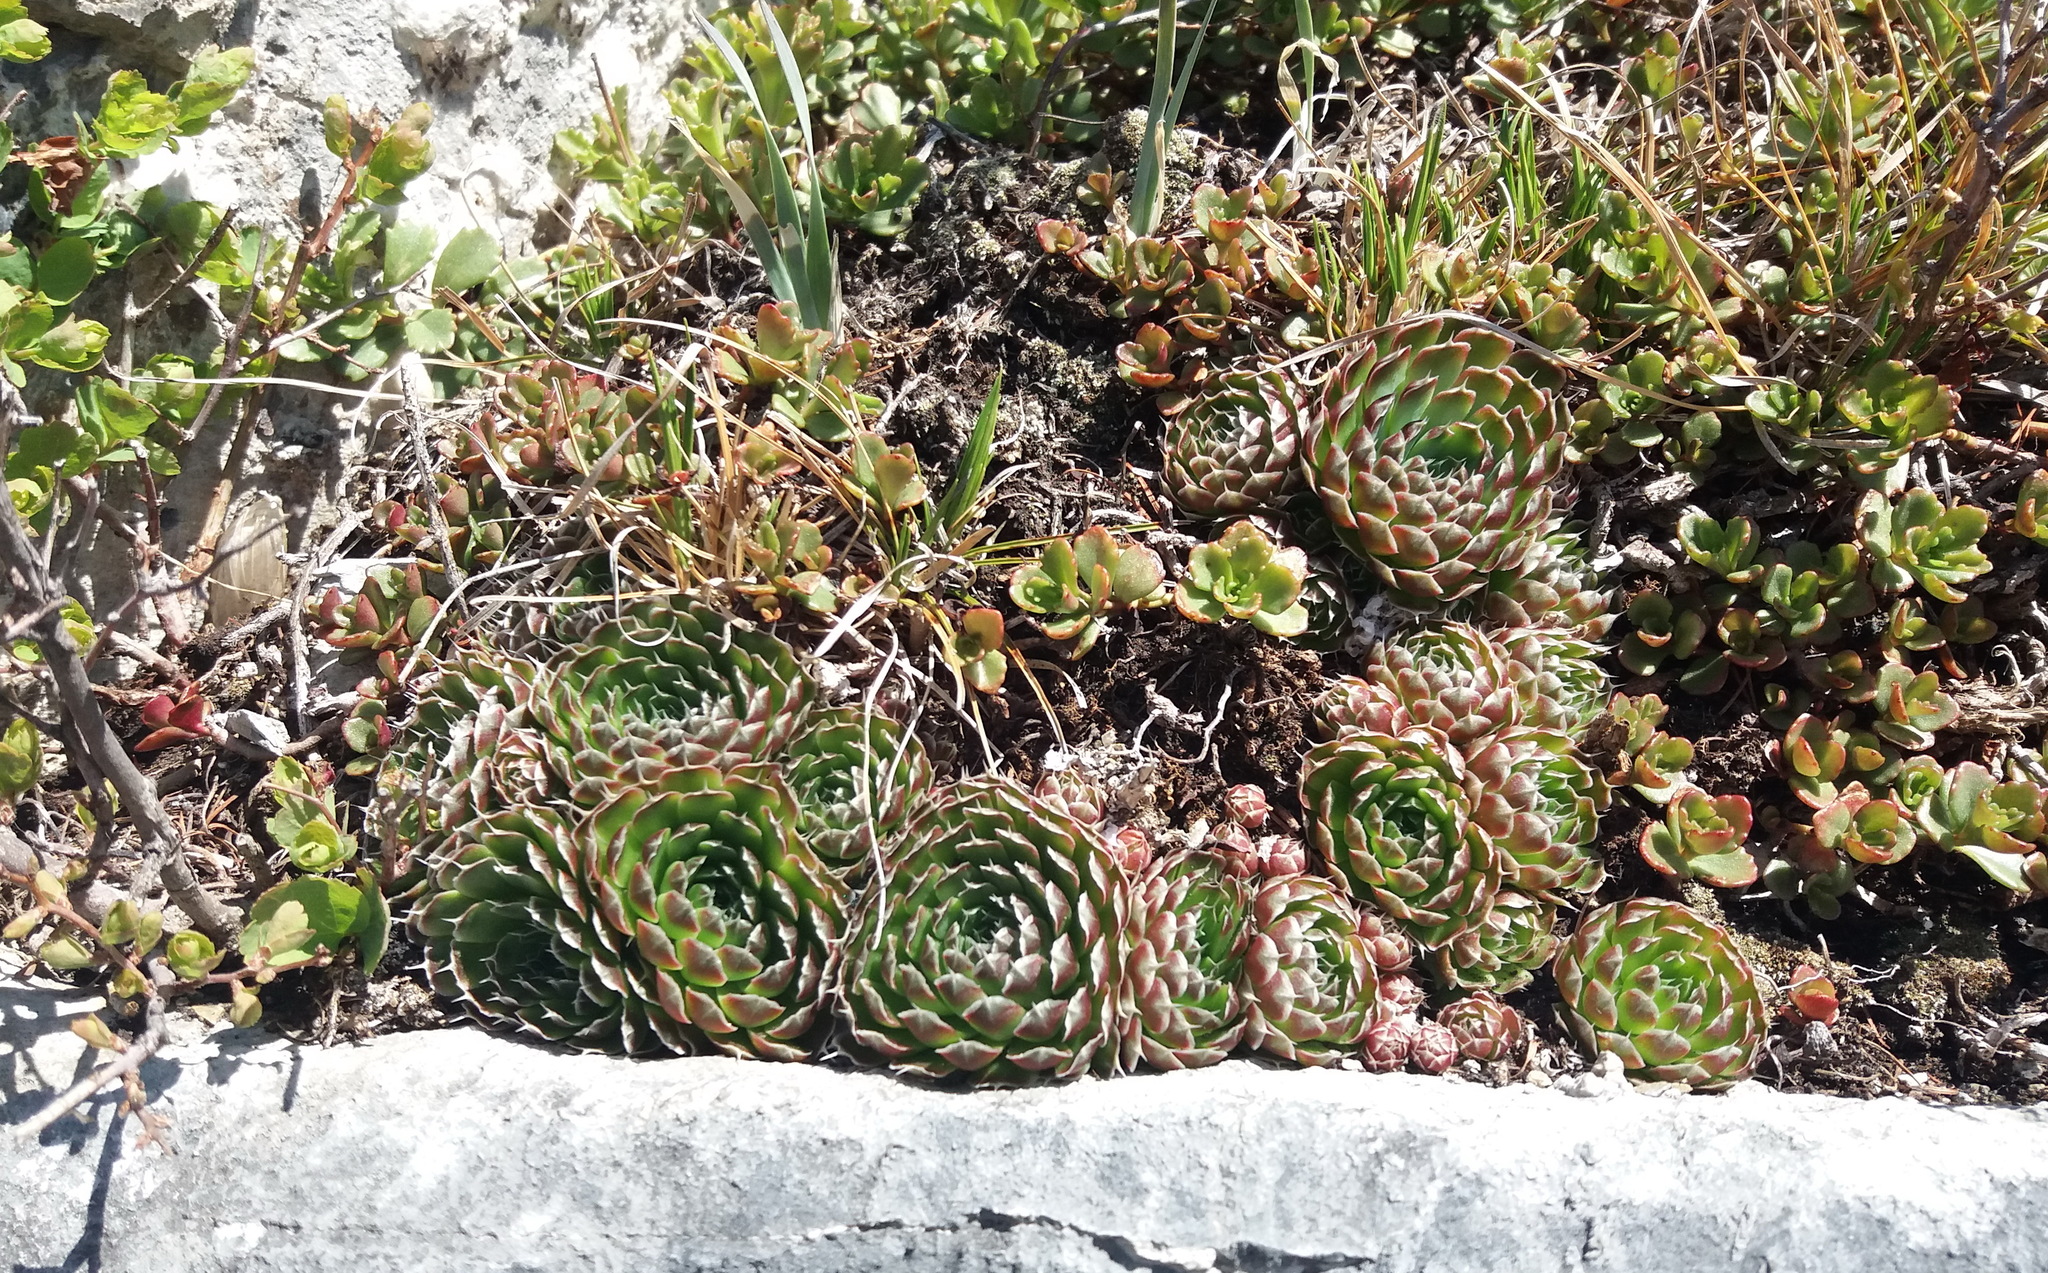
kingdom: Plantae
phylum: Tracheophyta
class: Magnoliopsida
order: Saxifragales
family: Crassulaceae
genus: Orostachys
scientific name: Orostachys spinosa
